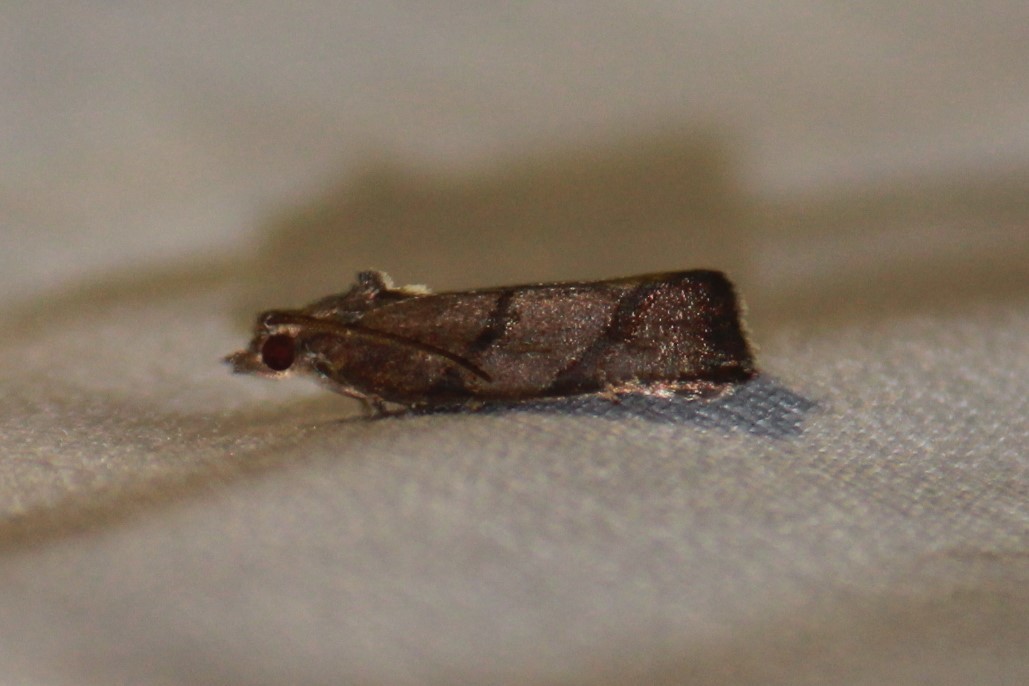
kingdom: Animalia
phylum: Arthropoda
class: Insecta
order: Lepidoptera
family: Tortricidae
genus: Argyrotaenia
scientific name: Argyrotaenia juglandana
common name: Hickory leafroller moth
